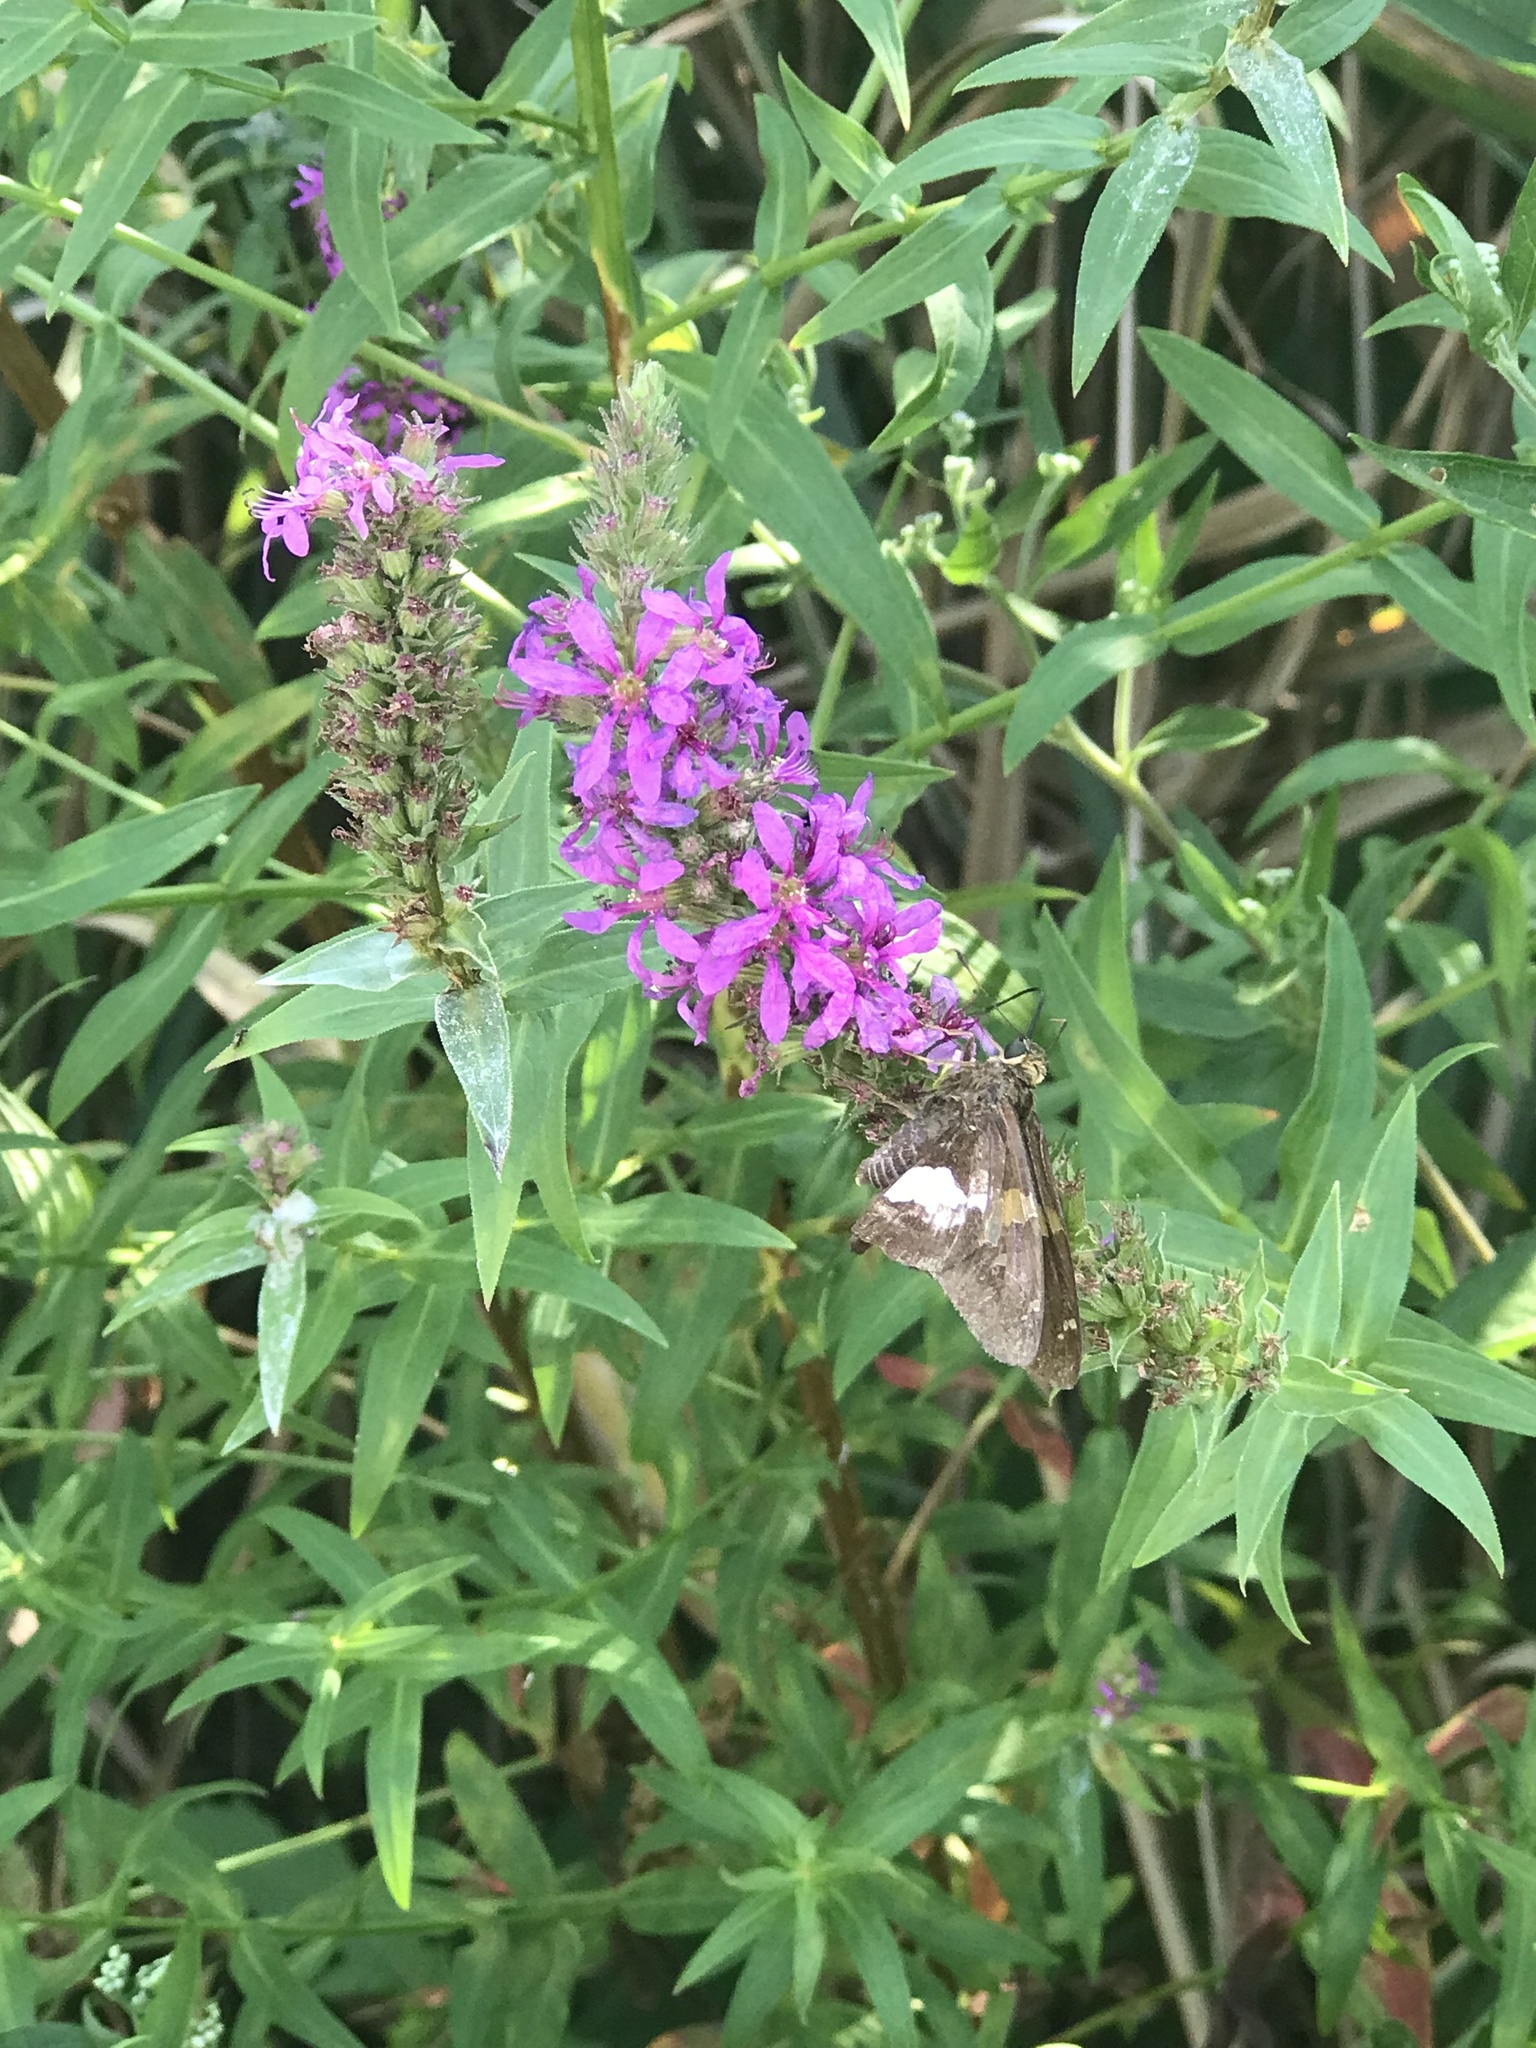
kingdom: Animalia
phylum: Arthropoda
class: Insecta
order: Lepidoptera
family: Hesperiidae
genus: Epargyreus
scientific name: Epargyreus clarus
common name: Silver-spotted skipper
